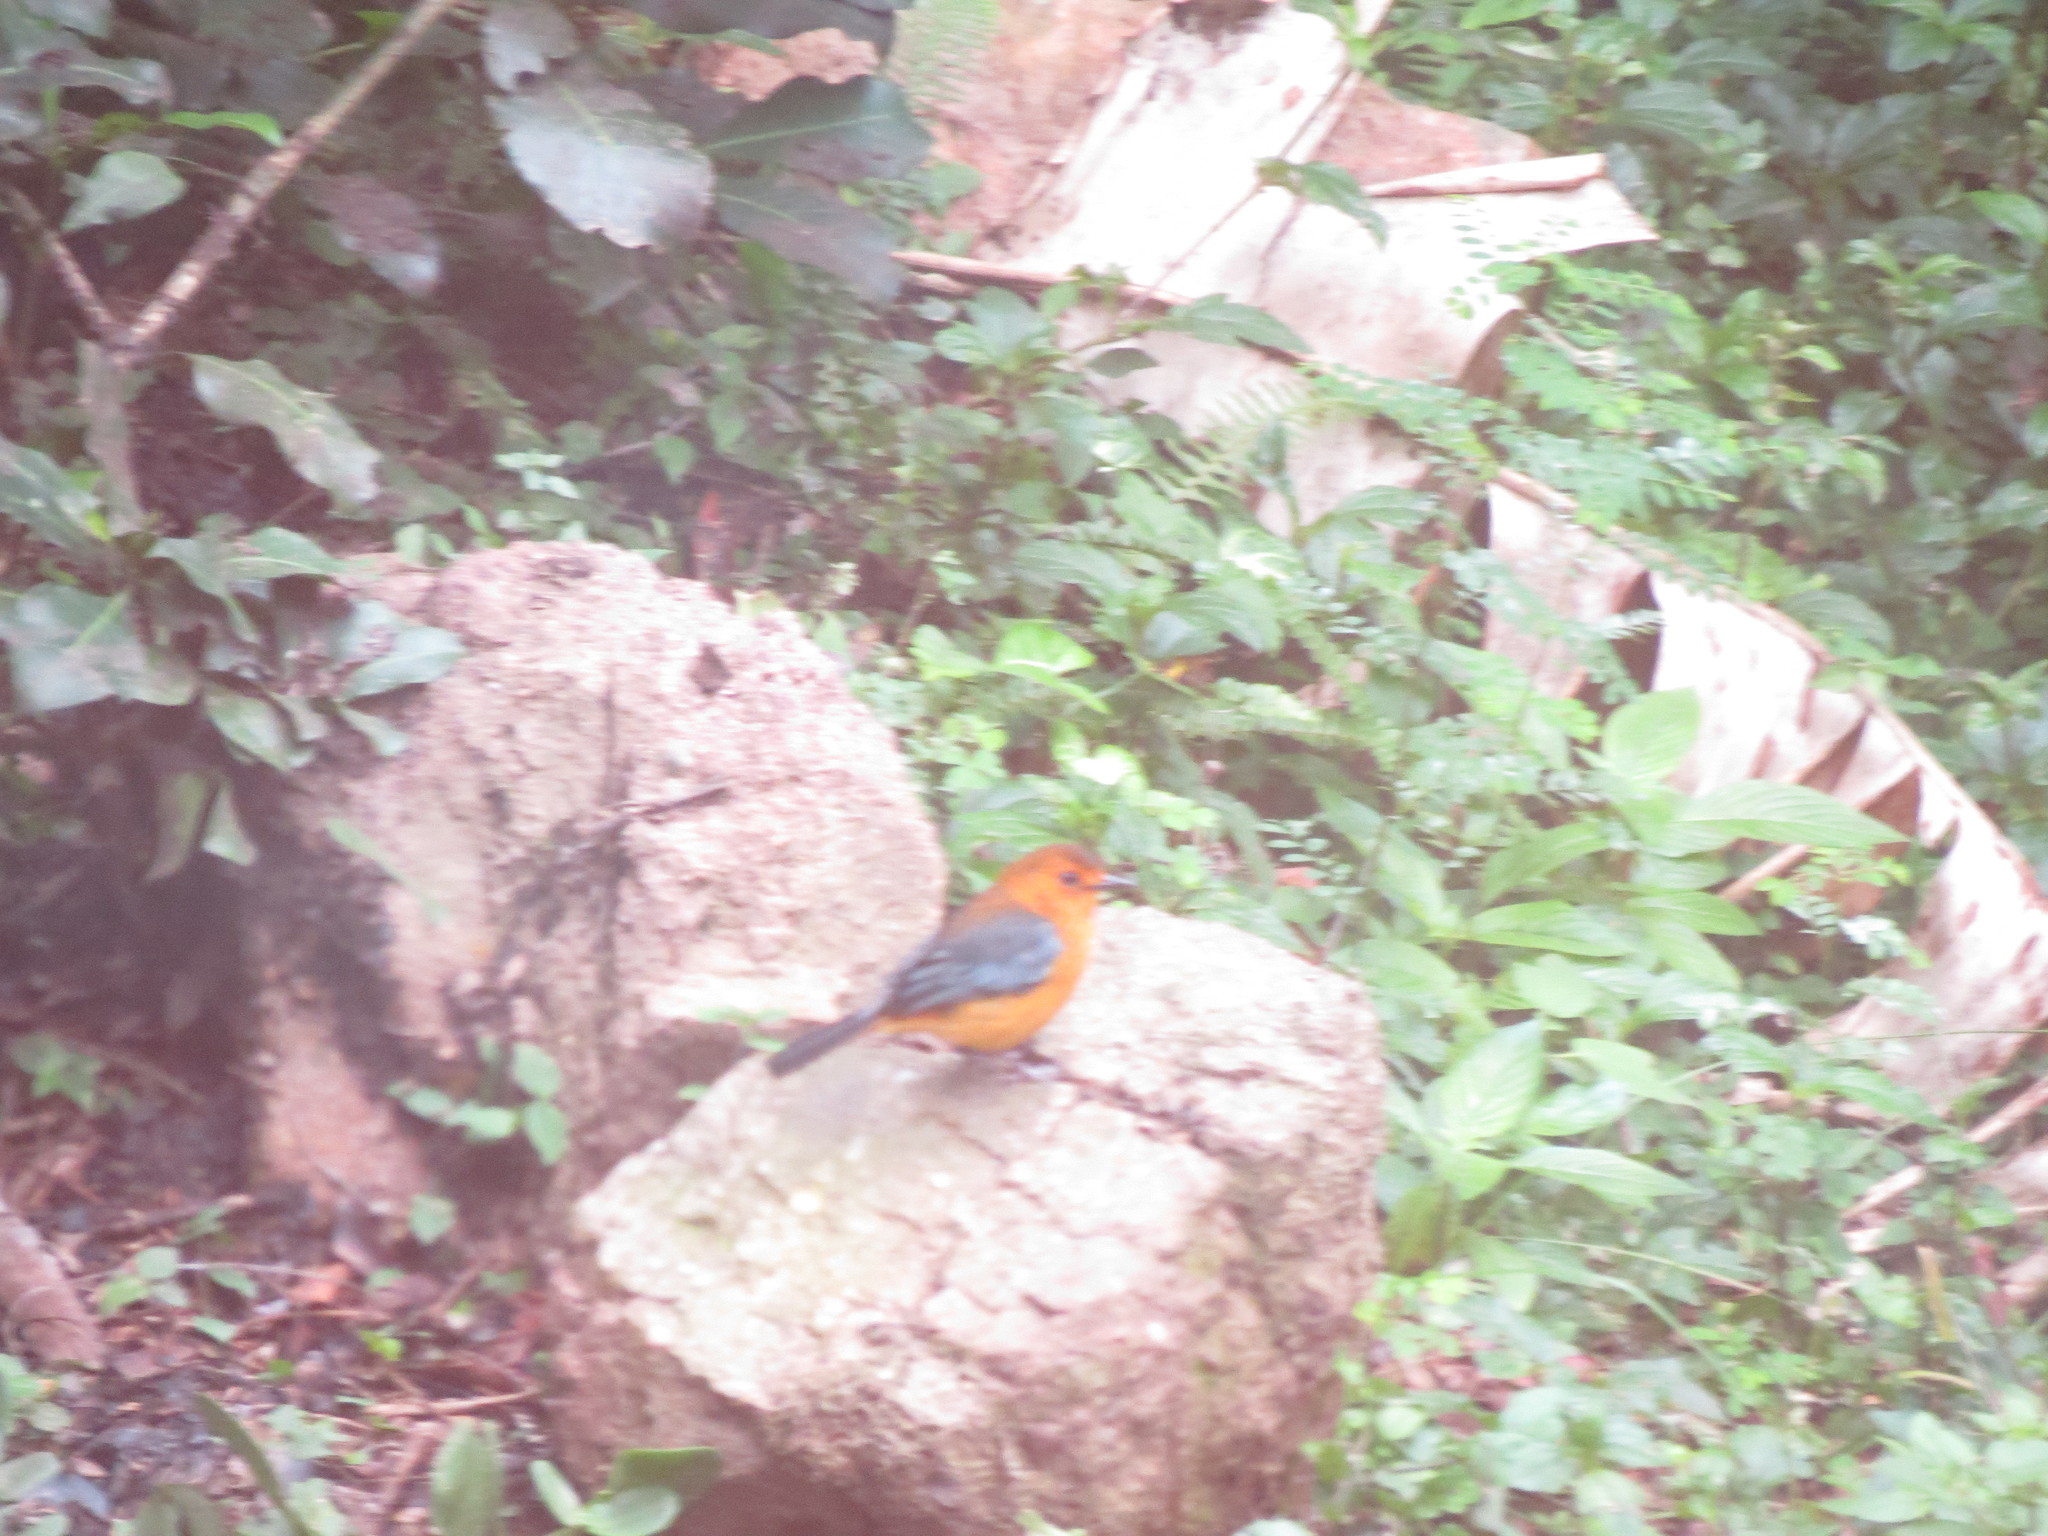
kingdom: Animalia
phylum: Chordata
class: Aves
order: Passeriformes
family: Muscicapidae
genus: Cossypha
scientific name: Cossypha natalensis
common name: Red-capped robin-chat
